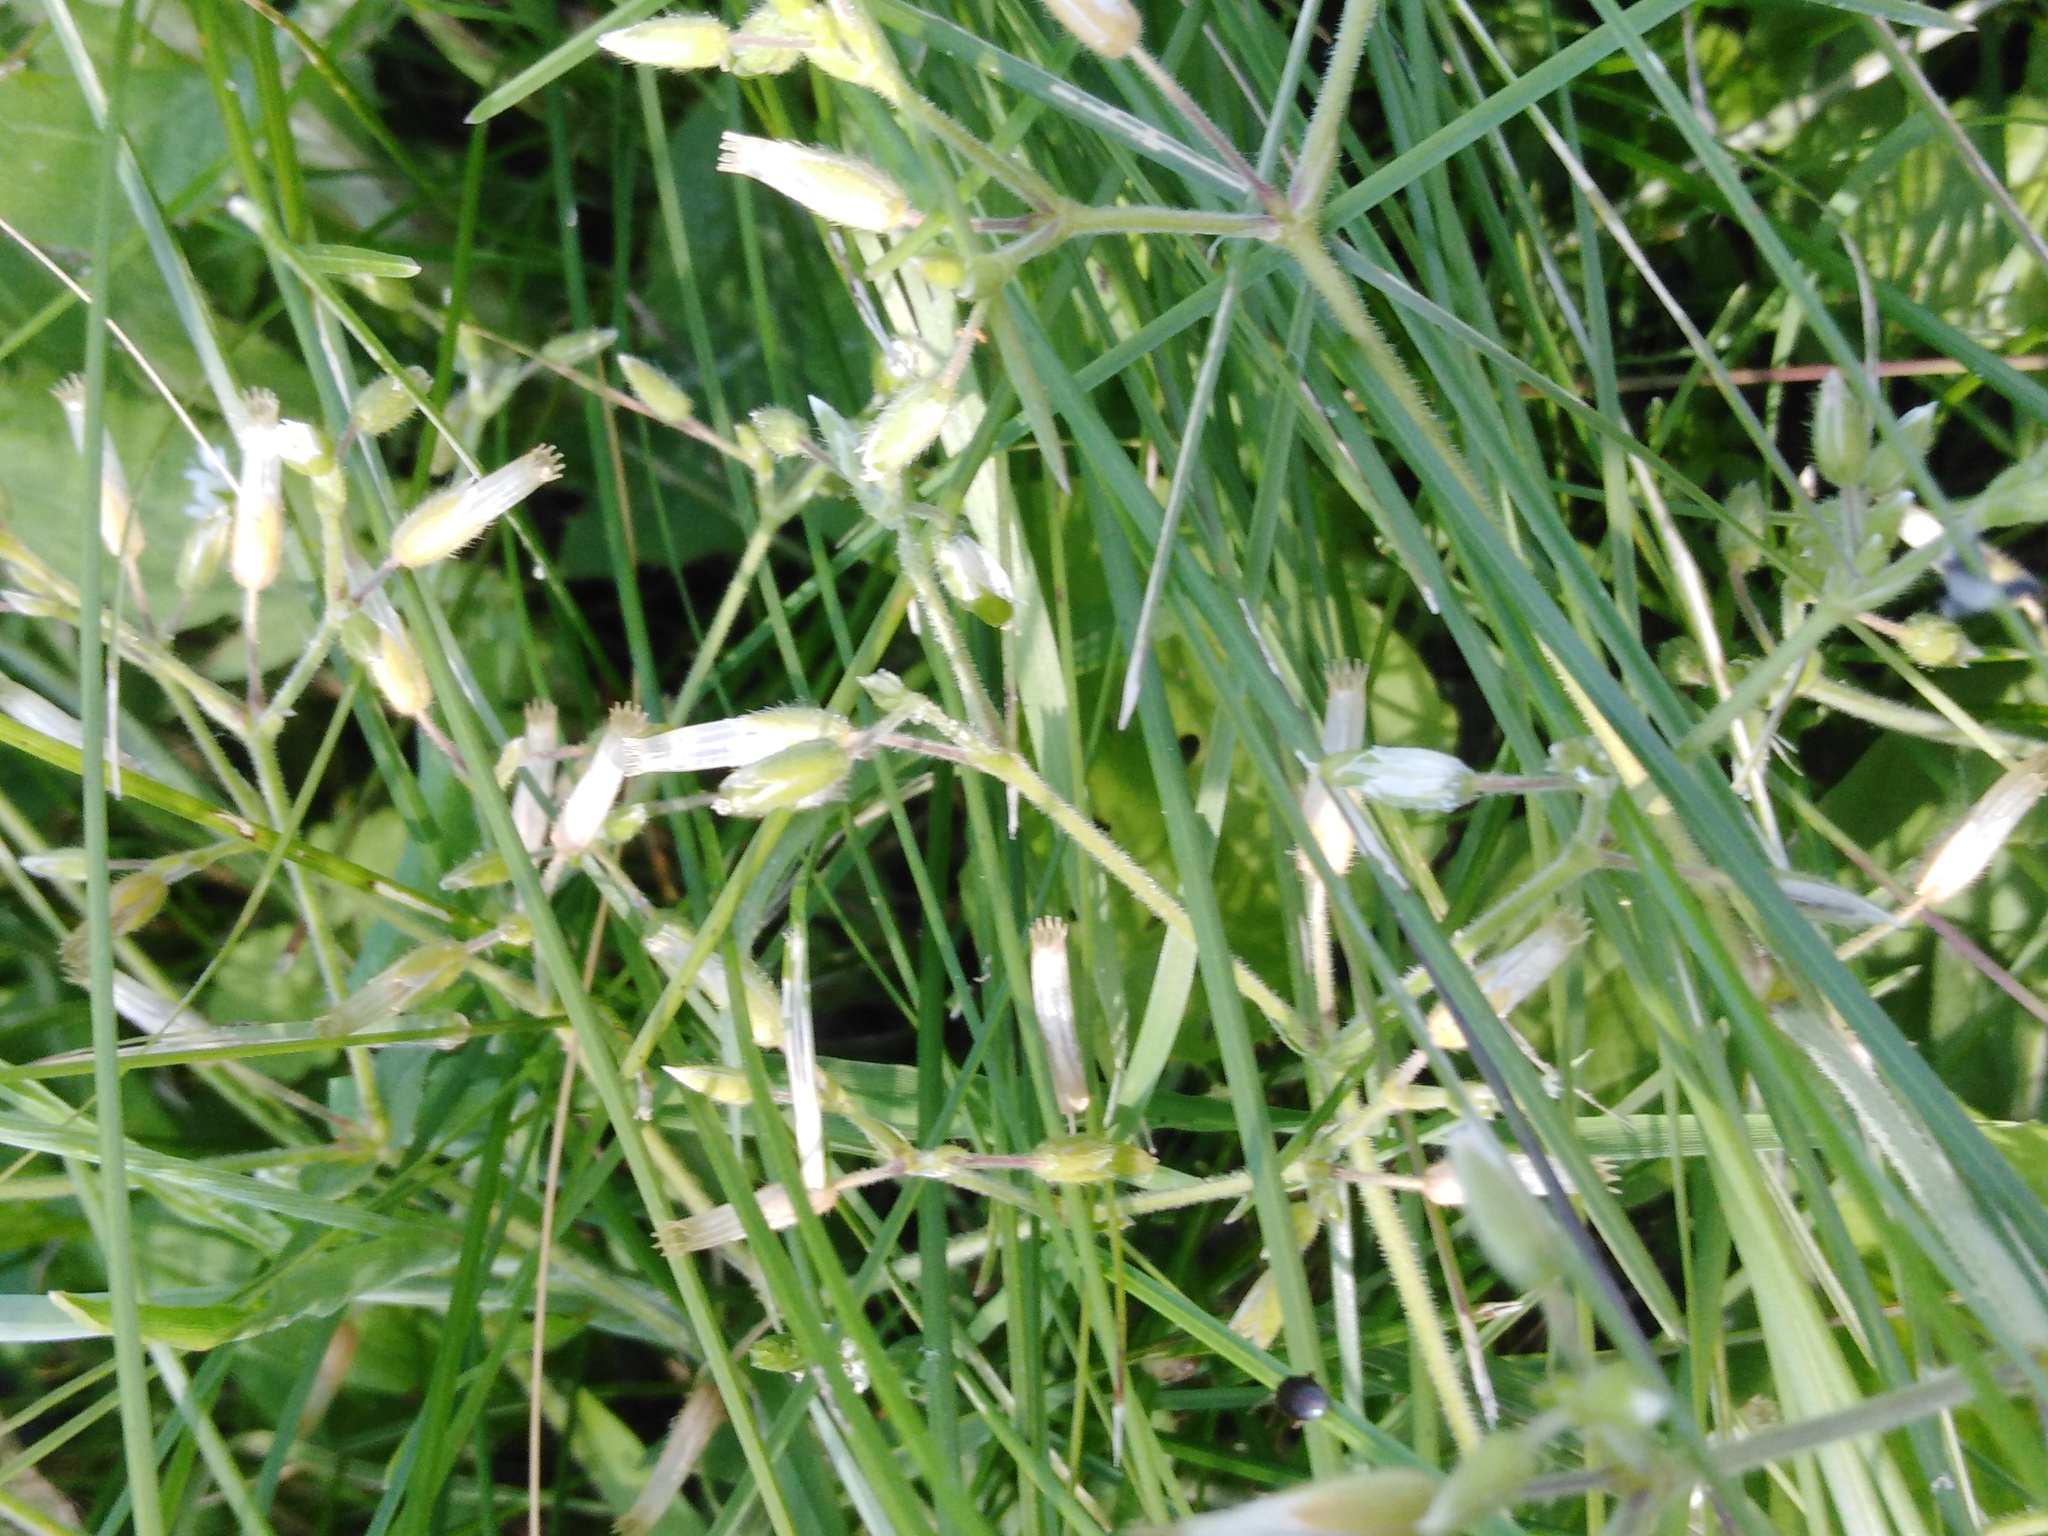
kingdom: Plantae
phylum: Tracheophyta
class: Magnoliopsida
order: Caryophyllales
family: Caryophyllaceae
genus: Cerastium
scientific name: Cerastium holosteoides
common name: Big chickweed
